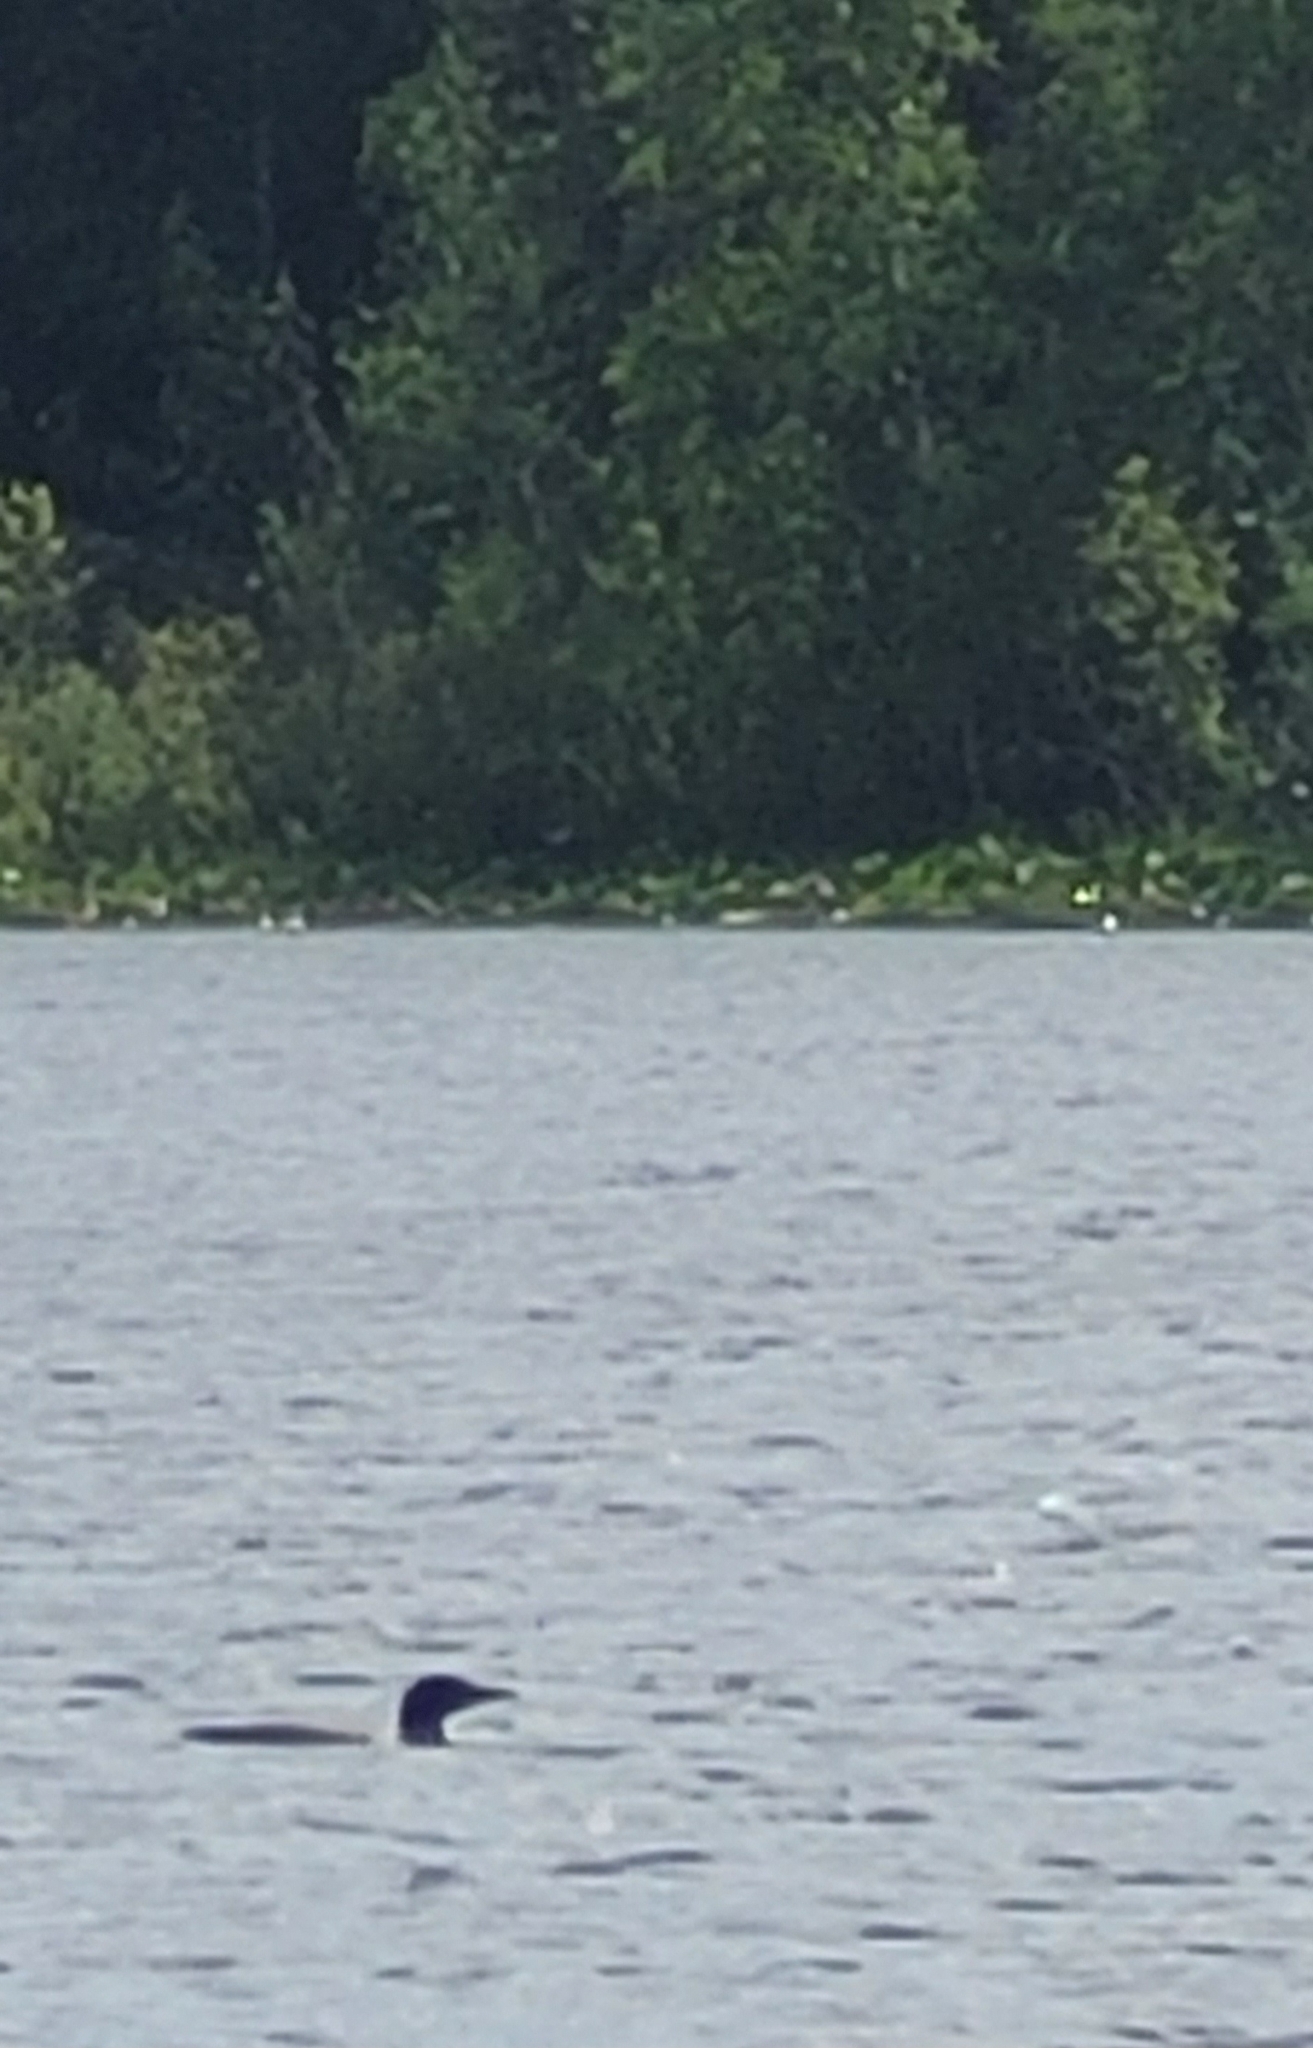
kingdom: Animalia
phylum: Chordata
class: Aves
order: Gaviiformes
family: Gaviidae
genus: Gavia
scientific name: Gavia immer
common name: Common loon
